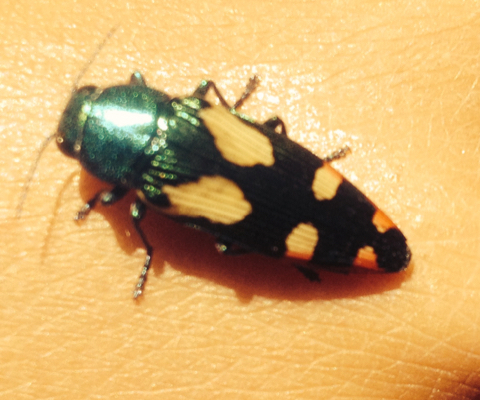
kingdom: Animalia
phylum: Arthropoda
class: Insecta
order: Coleoptera
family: Buprestidae
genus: Buprestis
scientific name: Buprestis gibbsii
